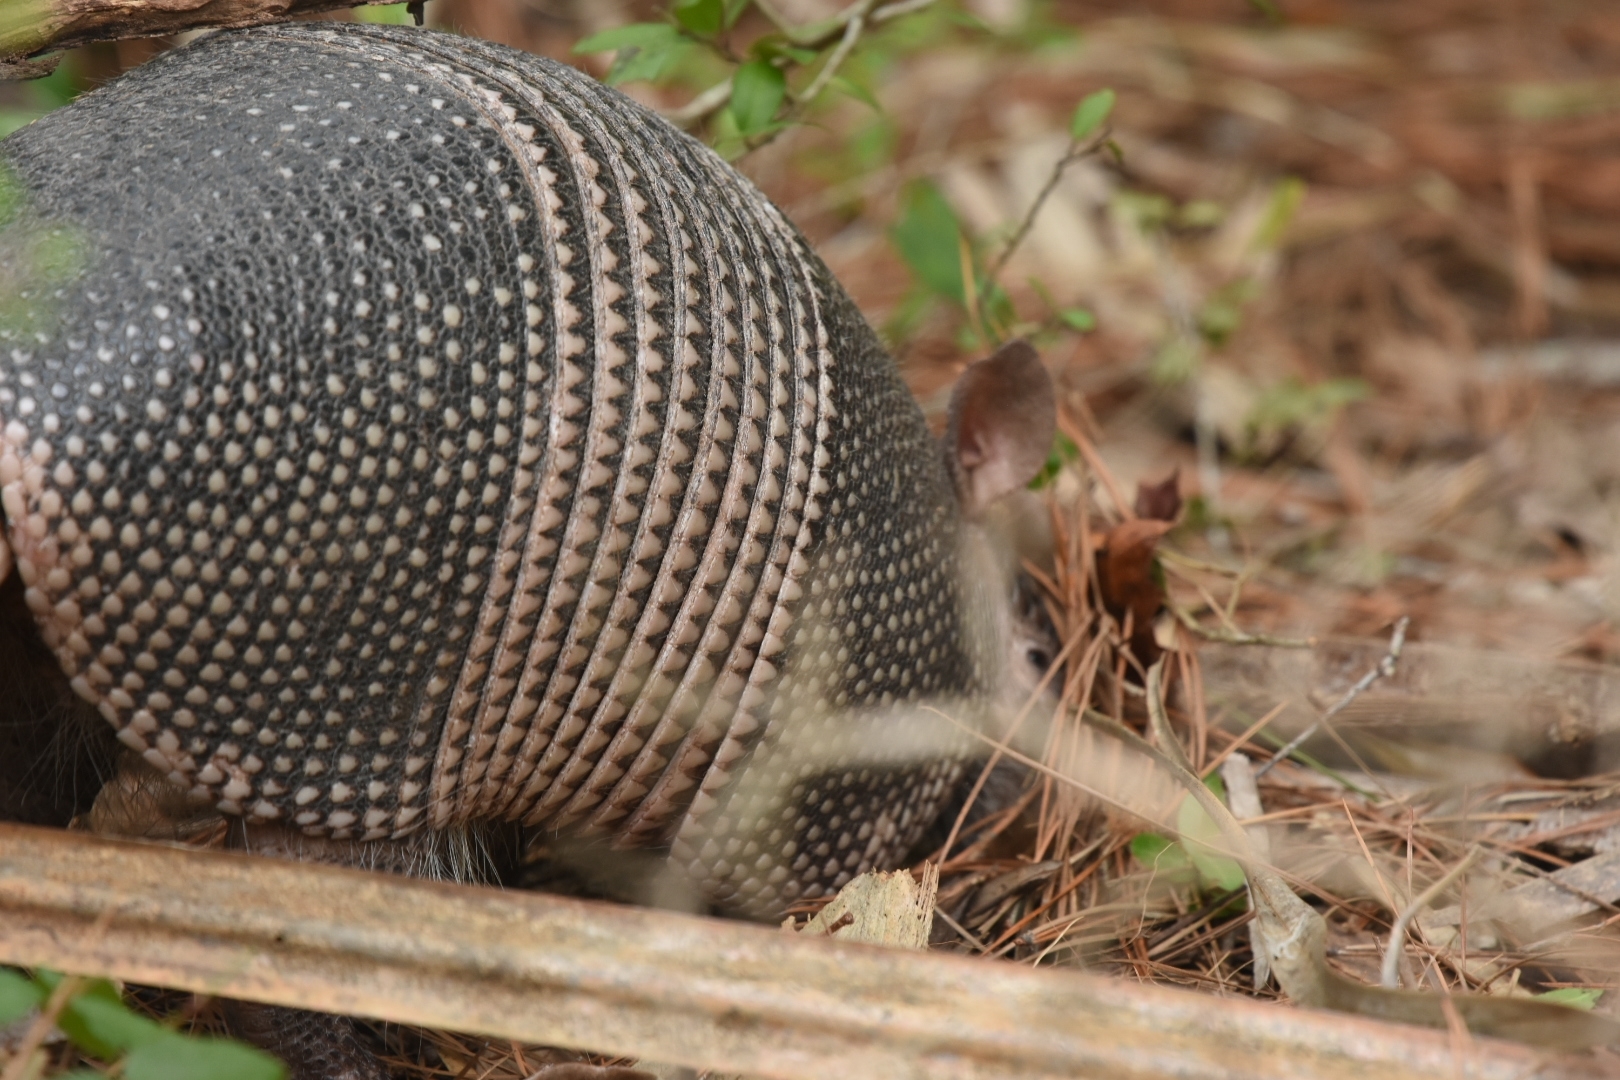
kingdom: Animalia
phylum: Chordata
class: Mammalia
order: Cingulata
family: Dasypodidae
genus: Dasypus
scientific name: Dasypus novemcinctus
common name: Nine-banded armadillo
